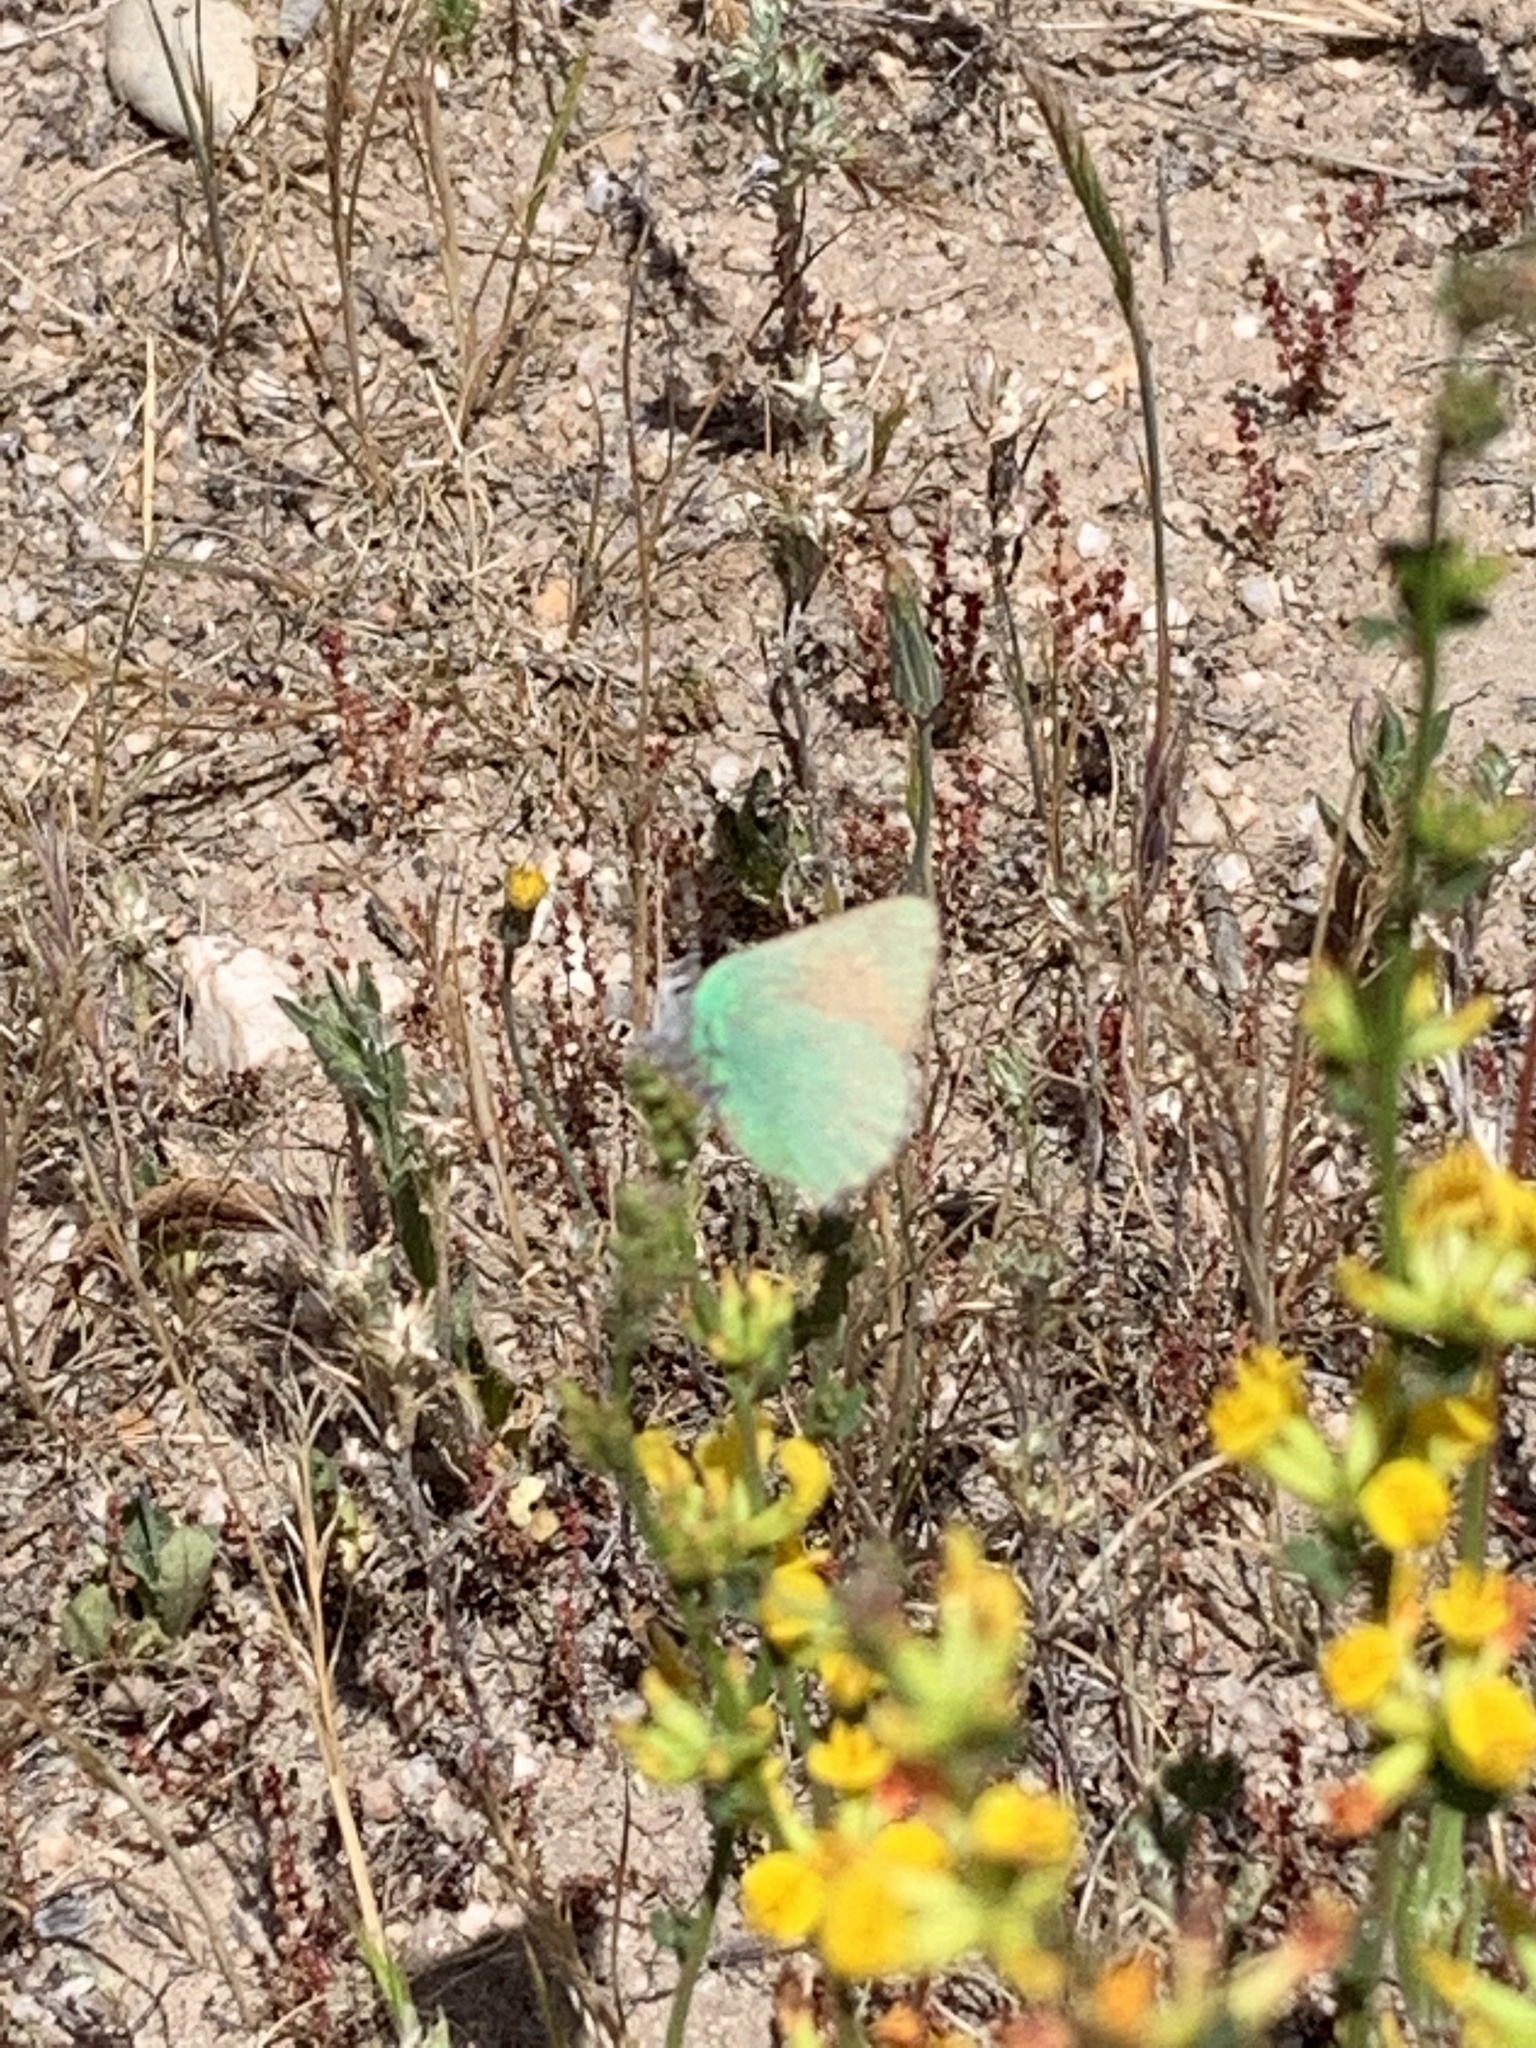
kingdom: Animalia
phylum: Arthropoda
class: Insecta
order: Lepidoptera
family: Lycaenidae
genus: Callophrys
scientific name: Callophrys dumetorum
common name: Bramble hairstreak
